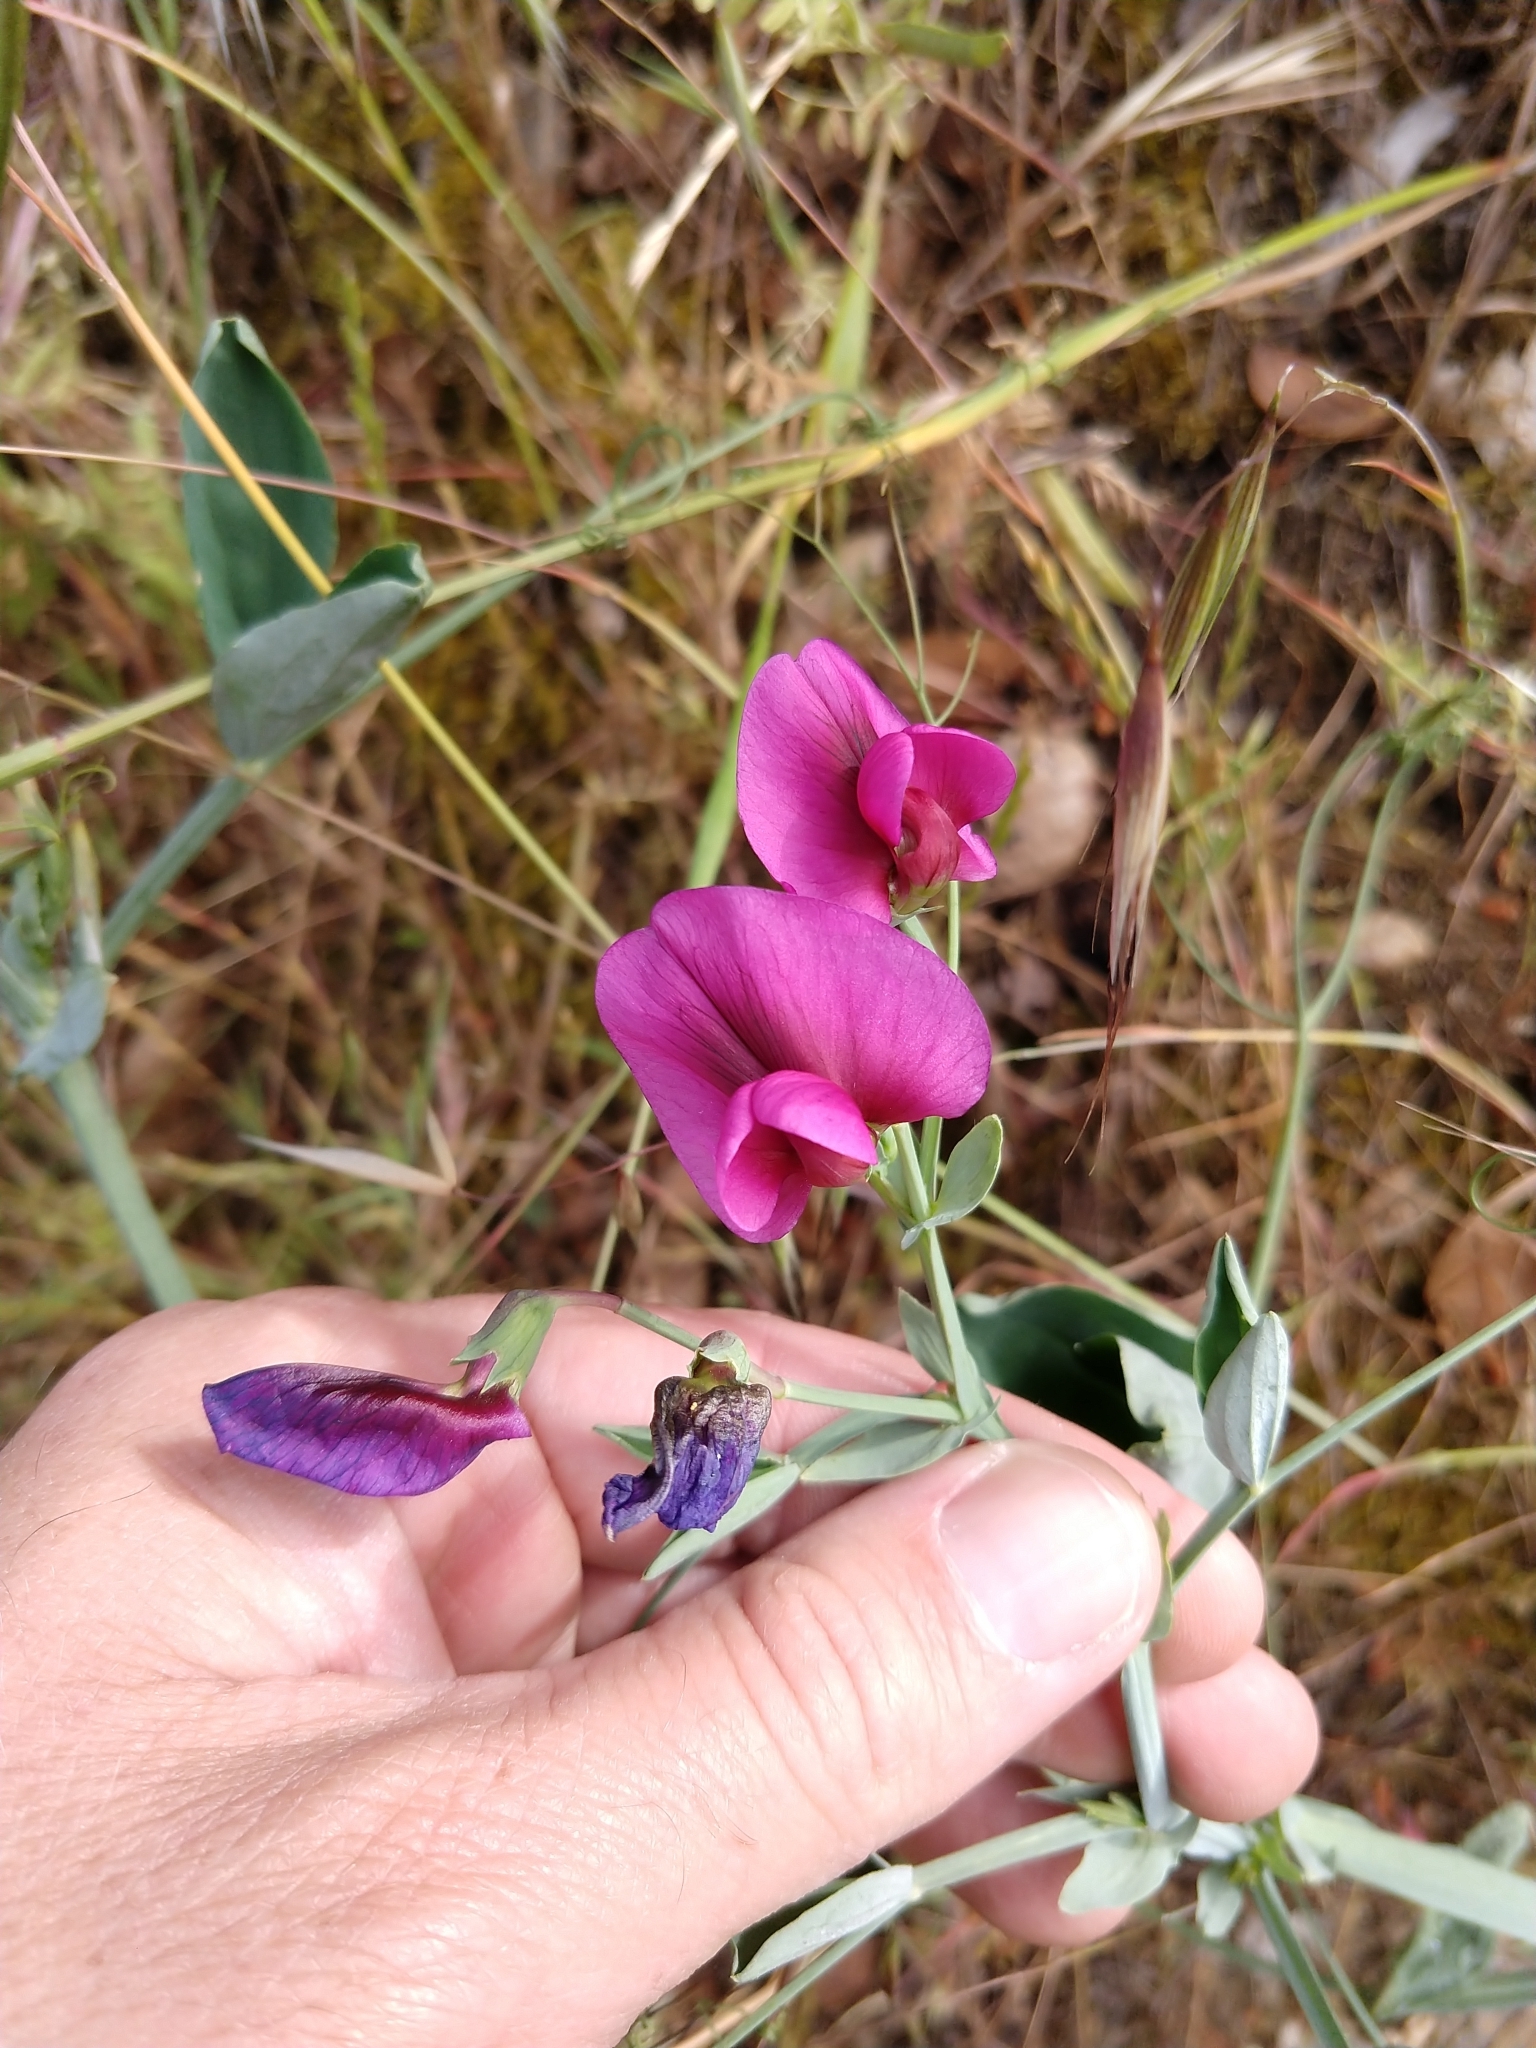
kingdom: Plantae
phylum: Tracheophyta
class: Magnoliopsida
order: Fabales
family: Fabaceae
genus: Lathyrus
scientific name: Lathyrus latifolius
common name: Perennial pea
